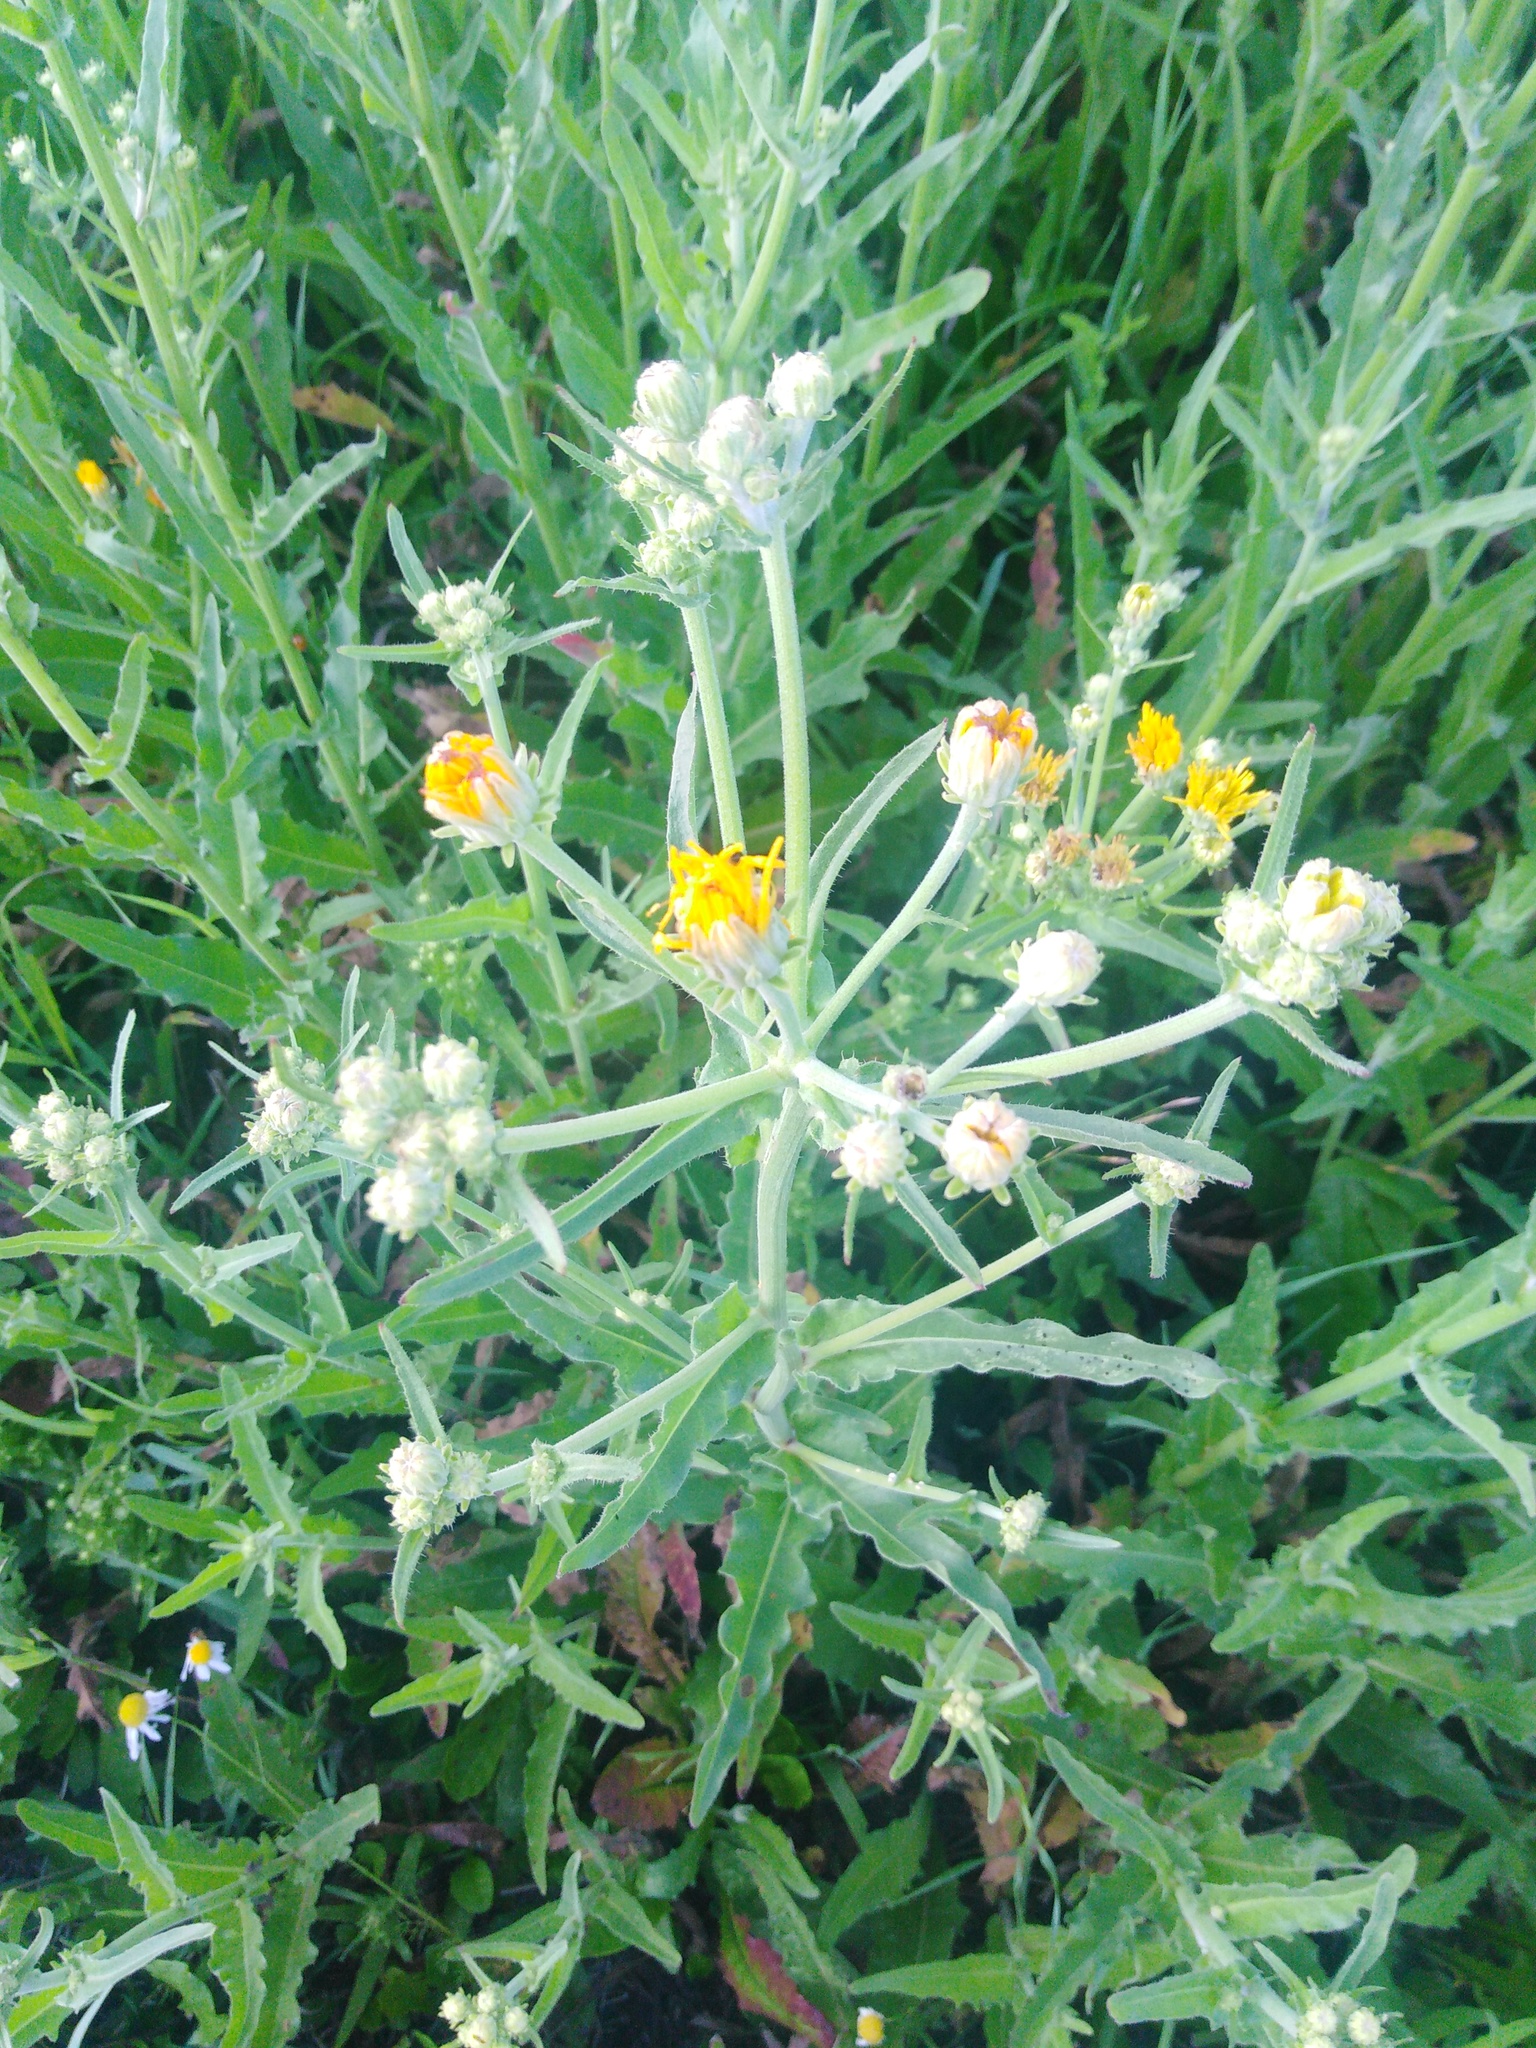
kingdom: Plantae
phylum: Tracheophyta
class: Magnoliopsida
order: Asterales
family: Asteraceae
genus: Picris
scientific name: Picris hieracioides
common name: Hawkweed oxtongue
